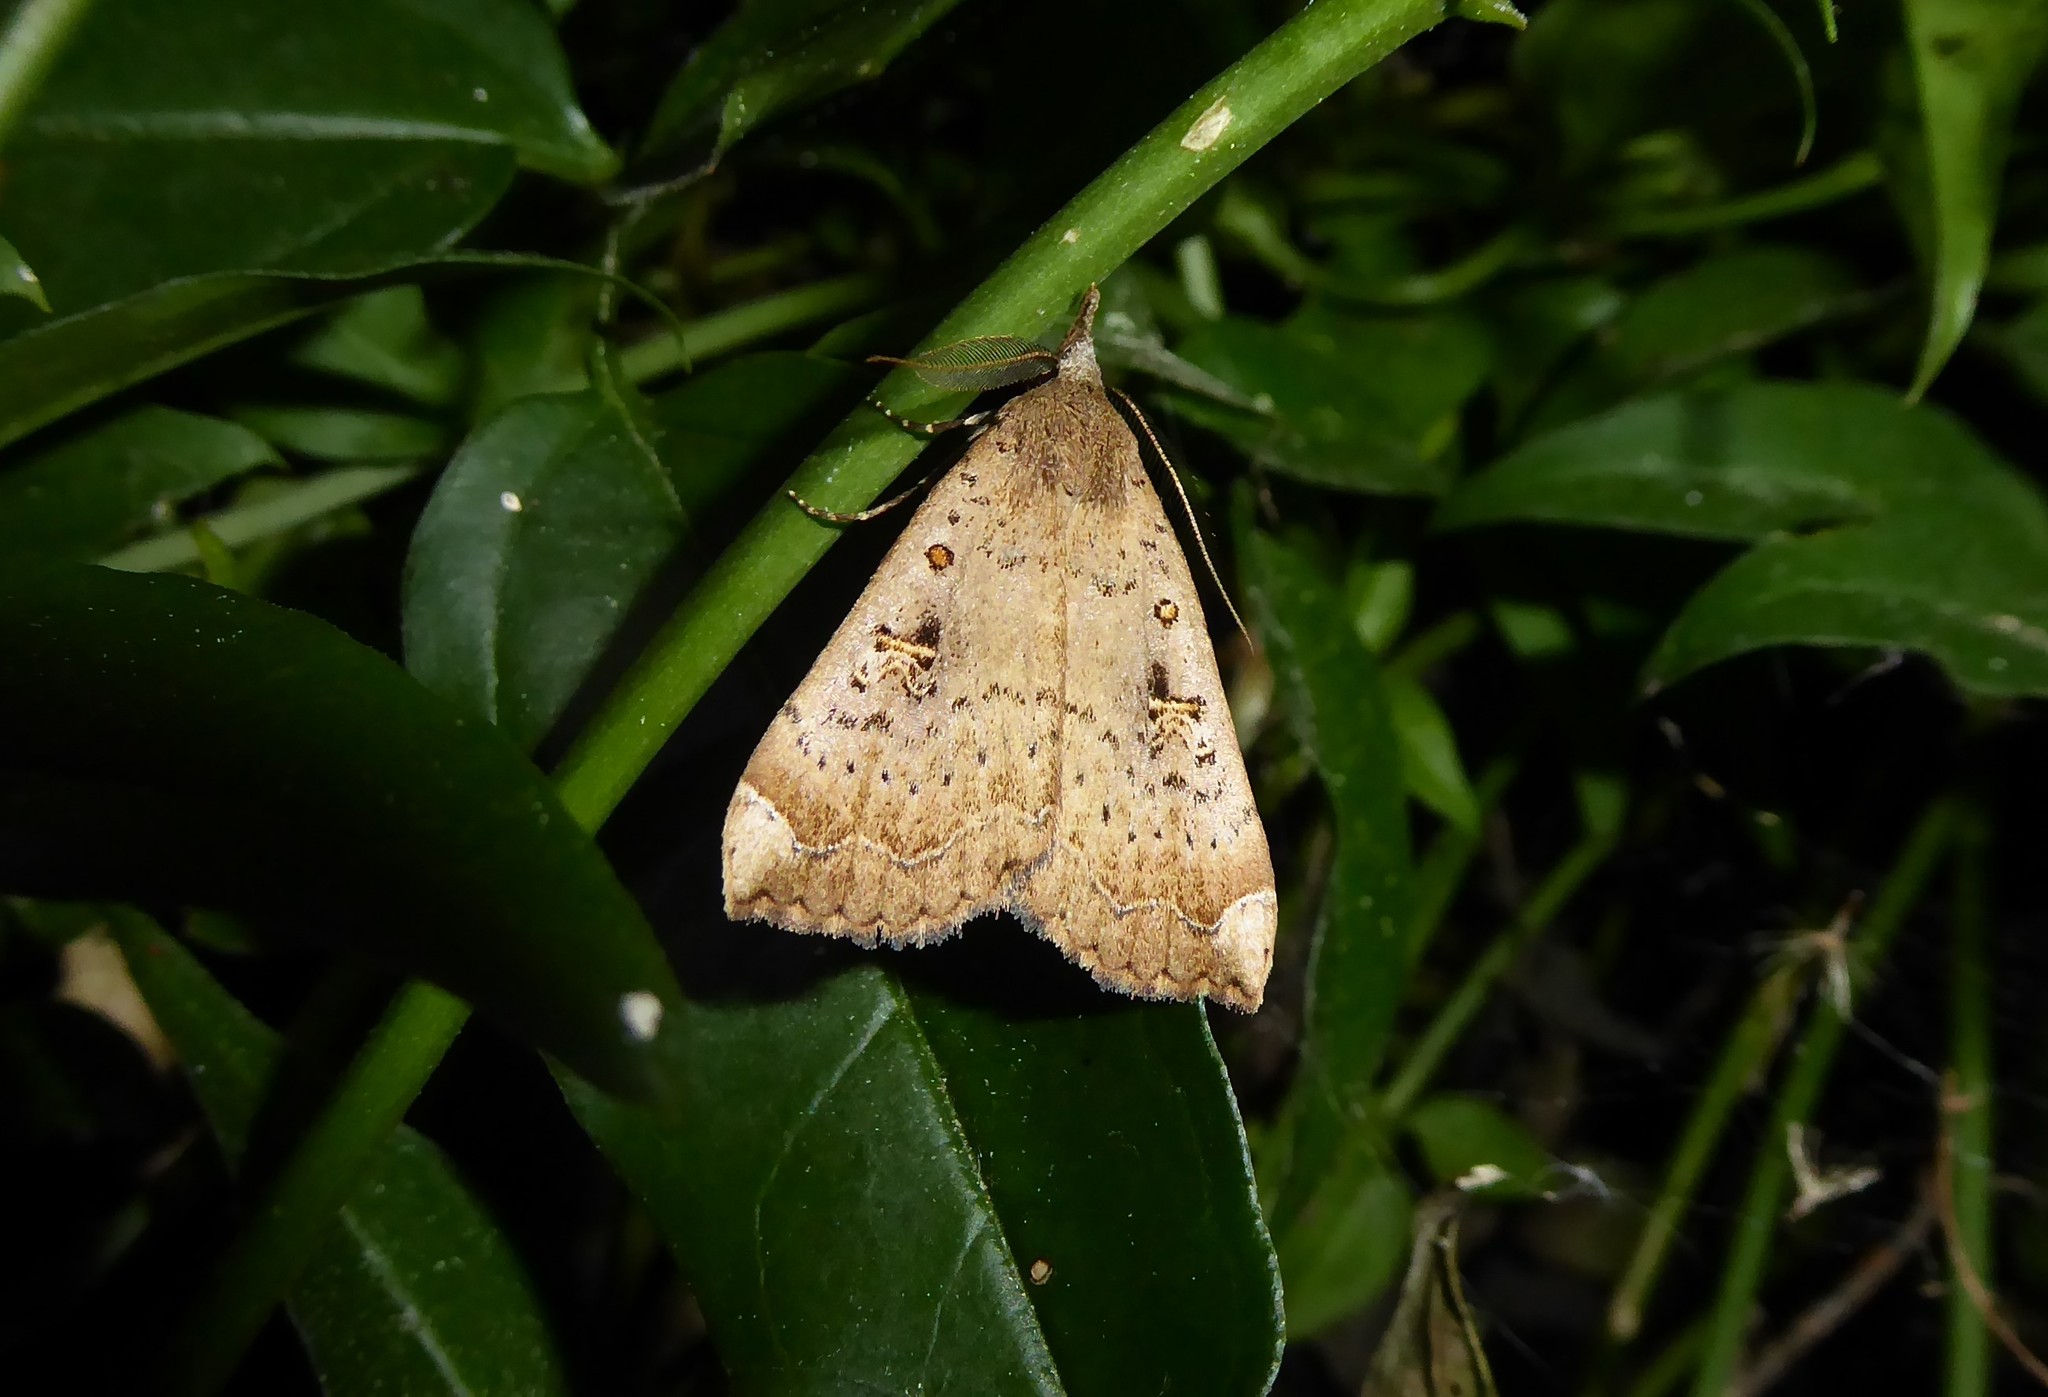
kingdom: Animalia
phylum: Arthropoda
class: Insecta
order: Lepidoptera
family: Erebidae
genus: Rhapsa
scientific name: Rhapsa scotosialis
